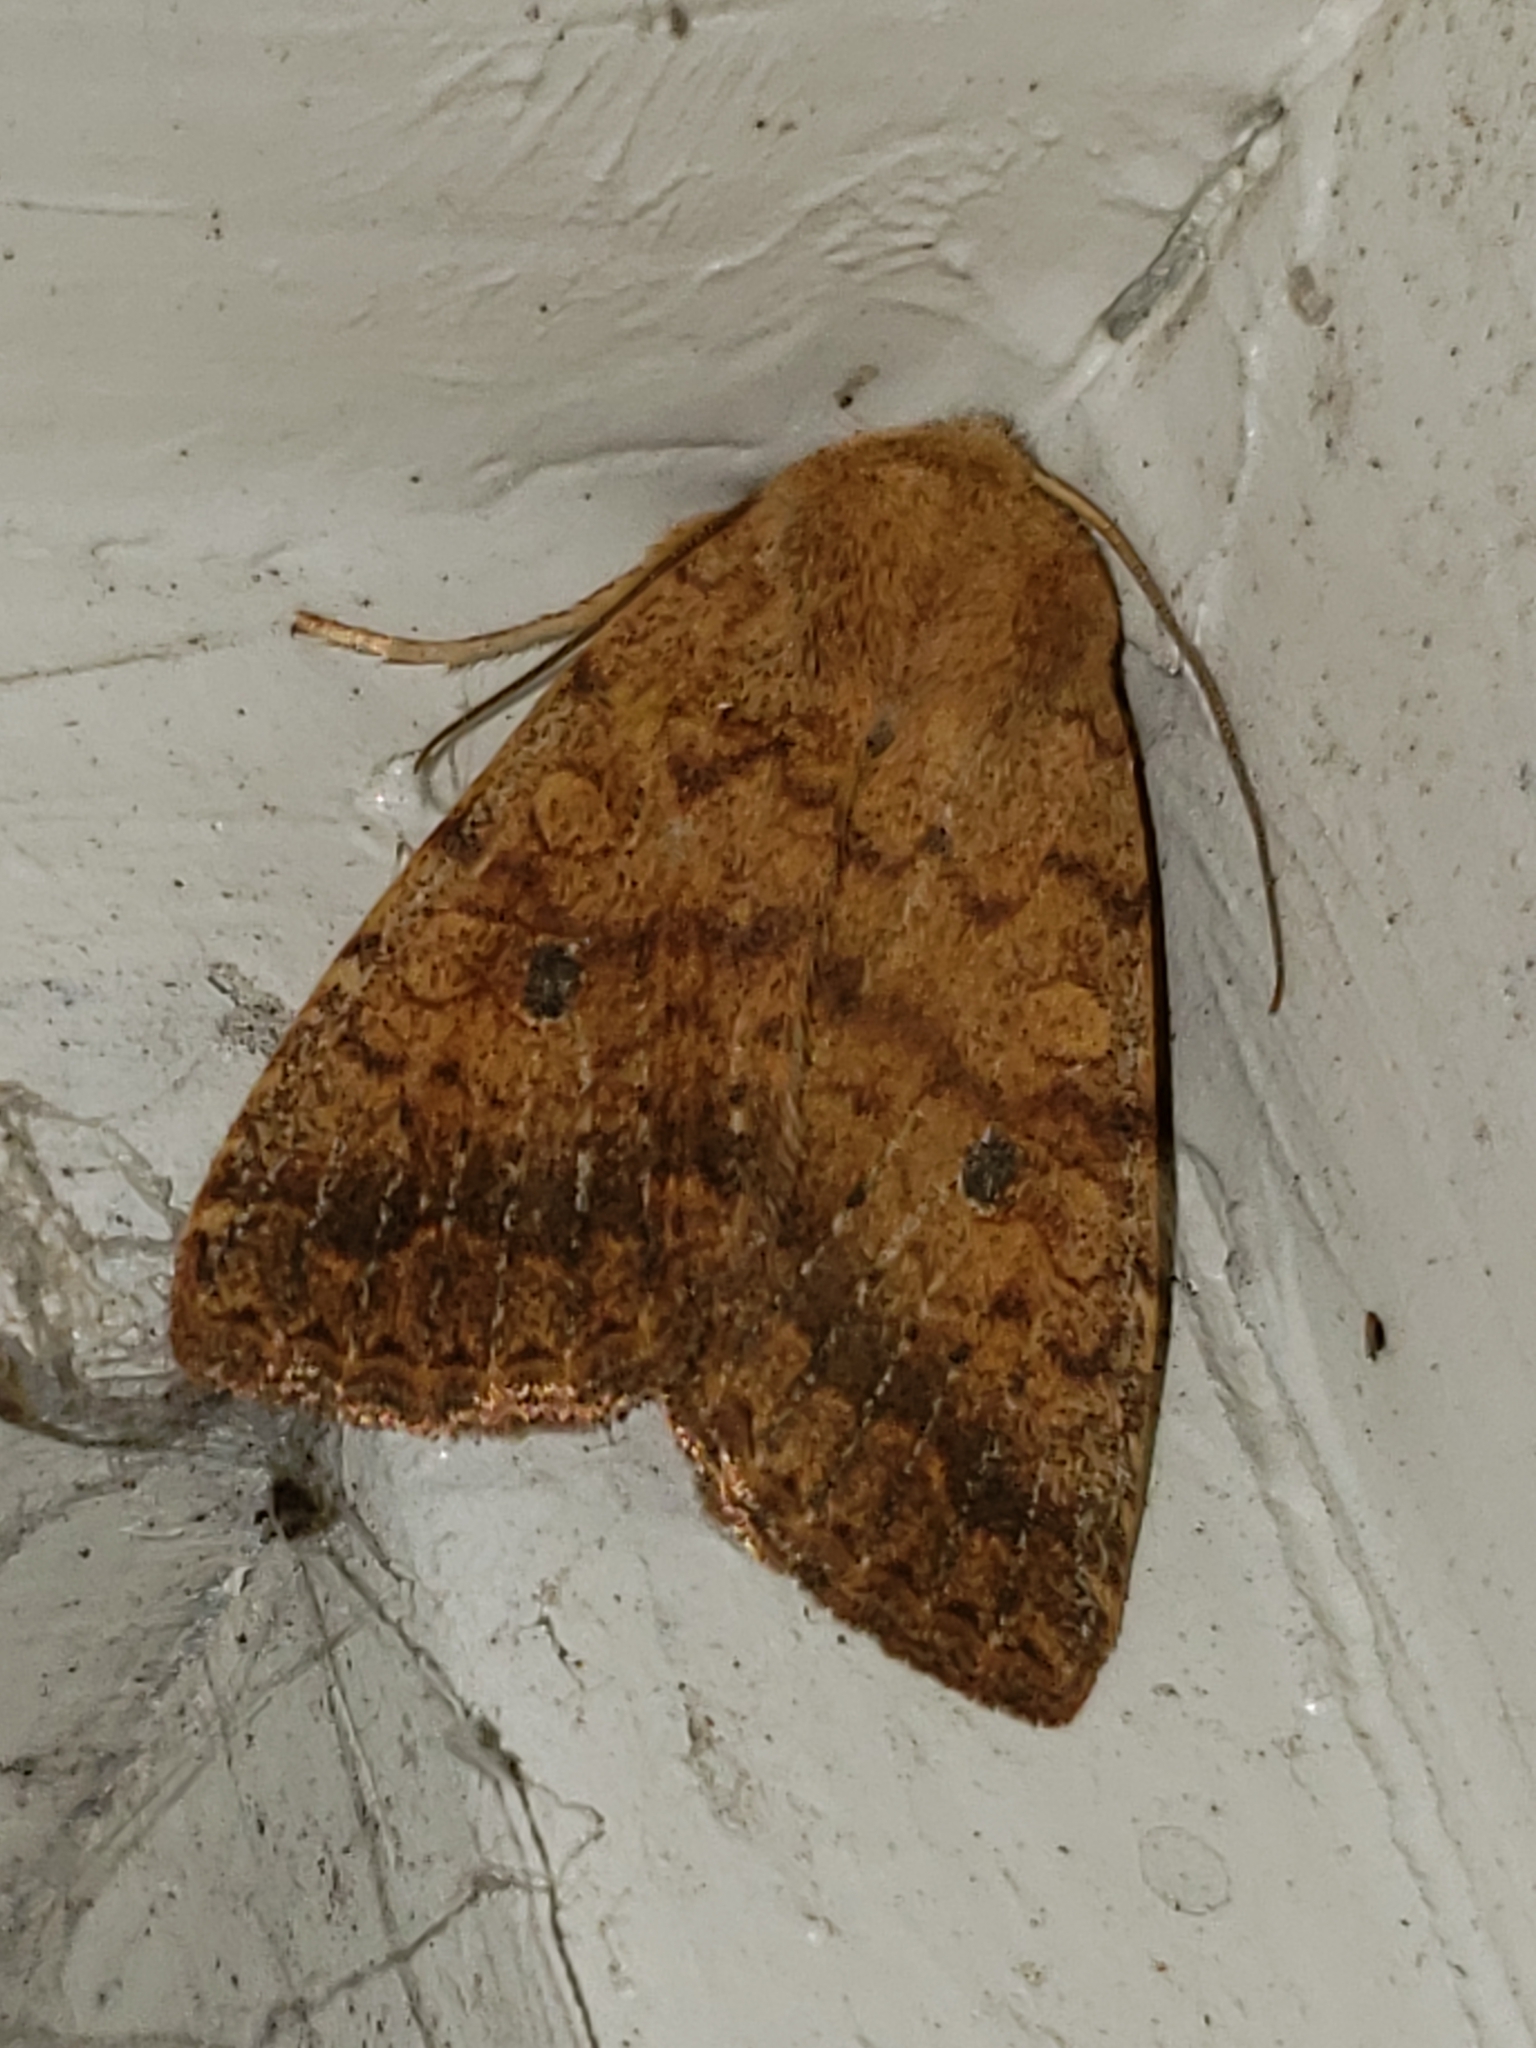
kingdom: Animalia
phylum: Arthropoda
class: Insecta
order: Lepidoptera
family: Noctuidae
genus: Agrochola
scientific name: Agrochola bicolorago
